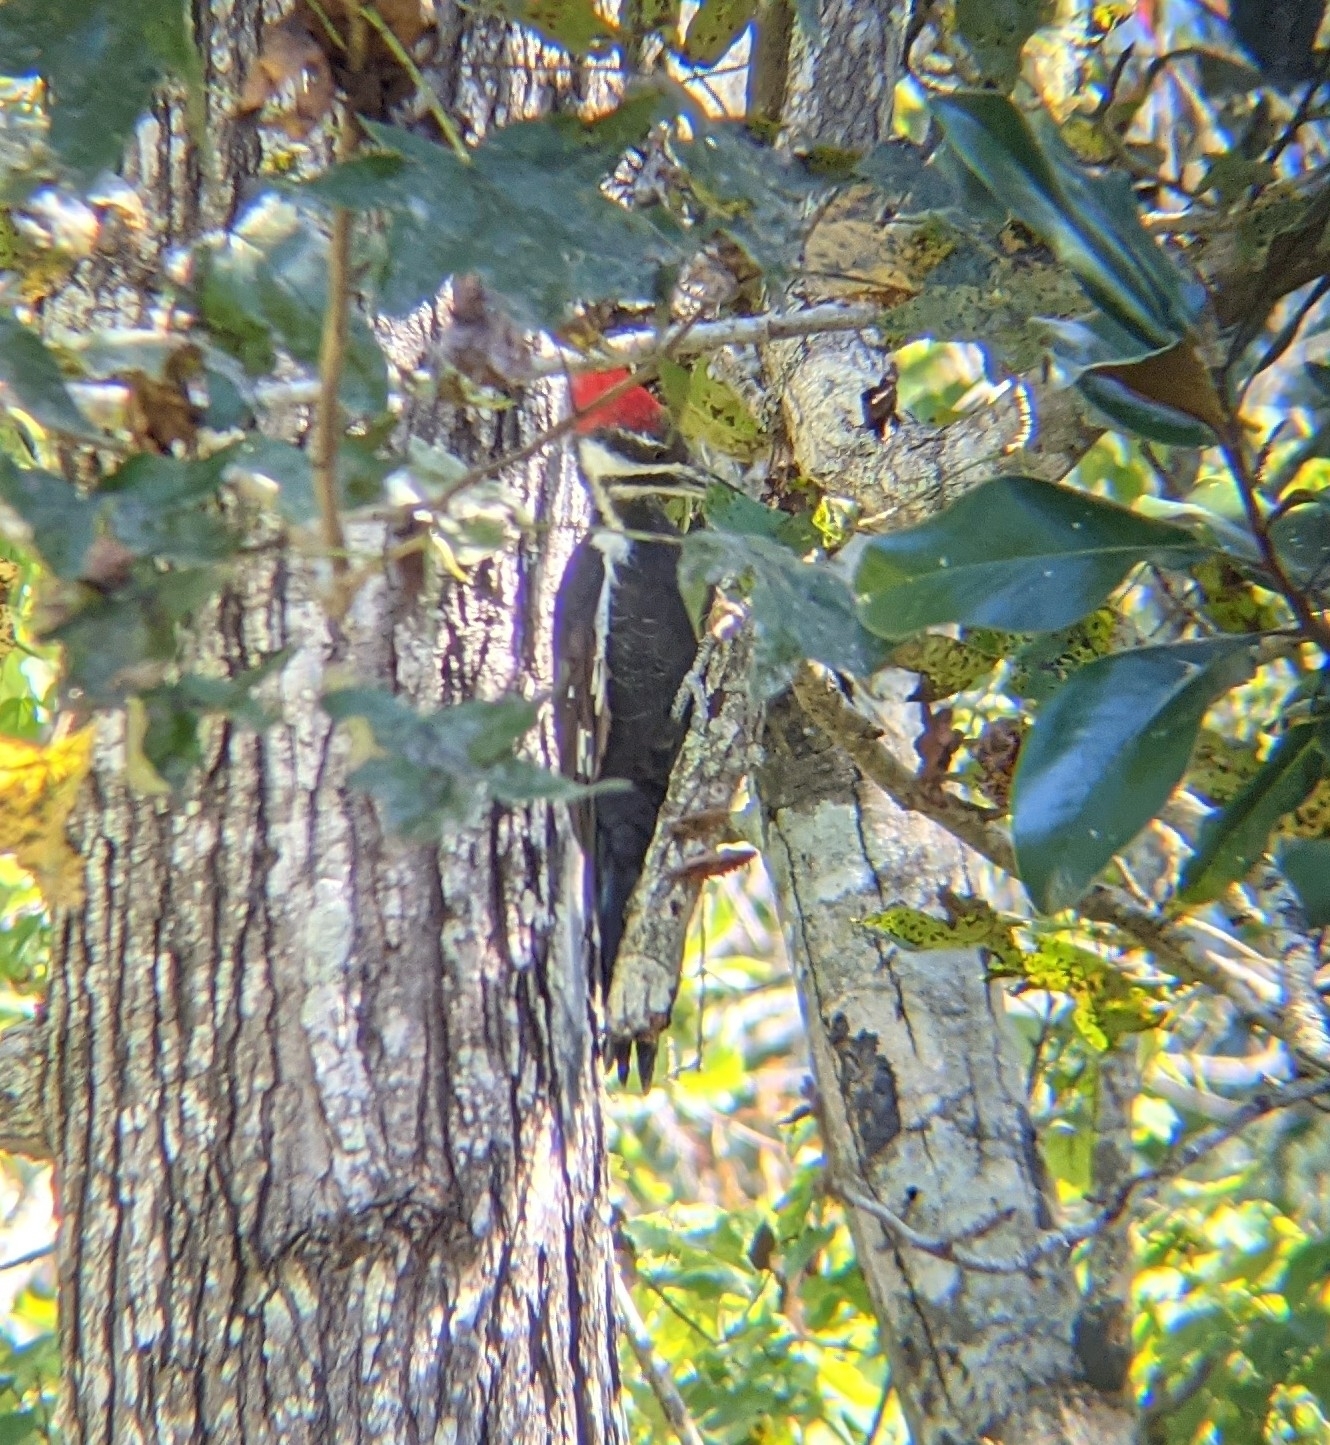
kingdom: Animalia
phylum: Chordata
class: Aves
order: Piciformes
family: Picidae
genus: Dryocopus
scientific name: Dryocopus pileatus
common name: Pileated woodpecker
